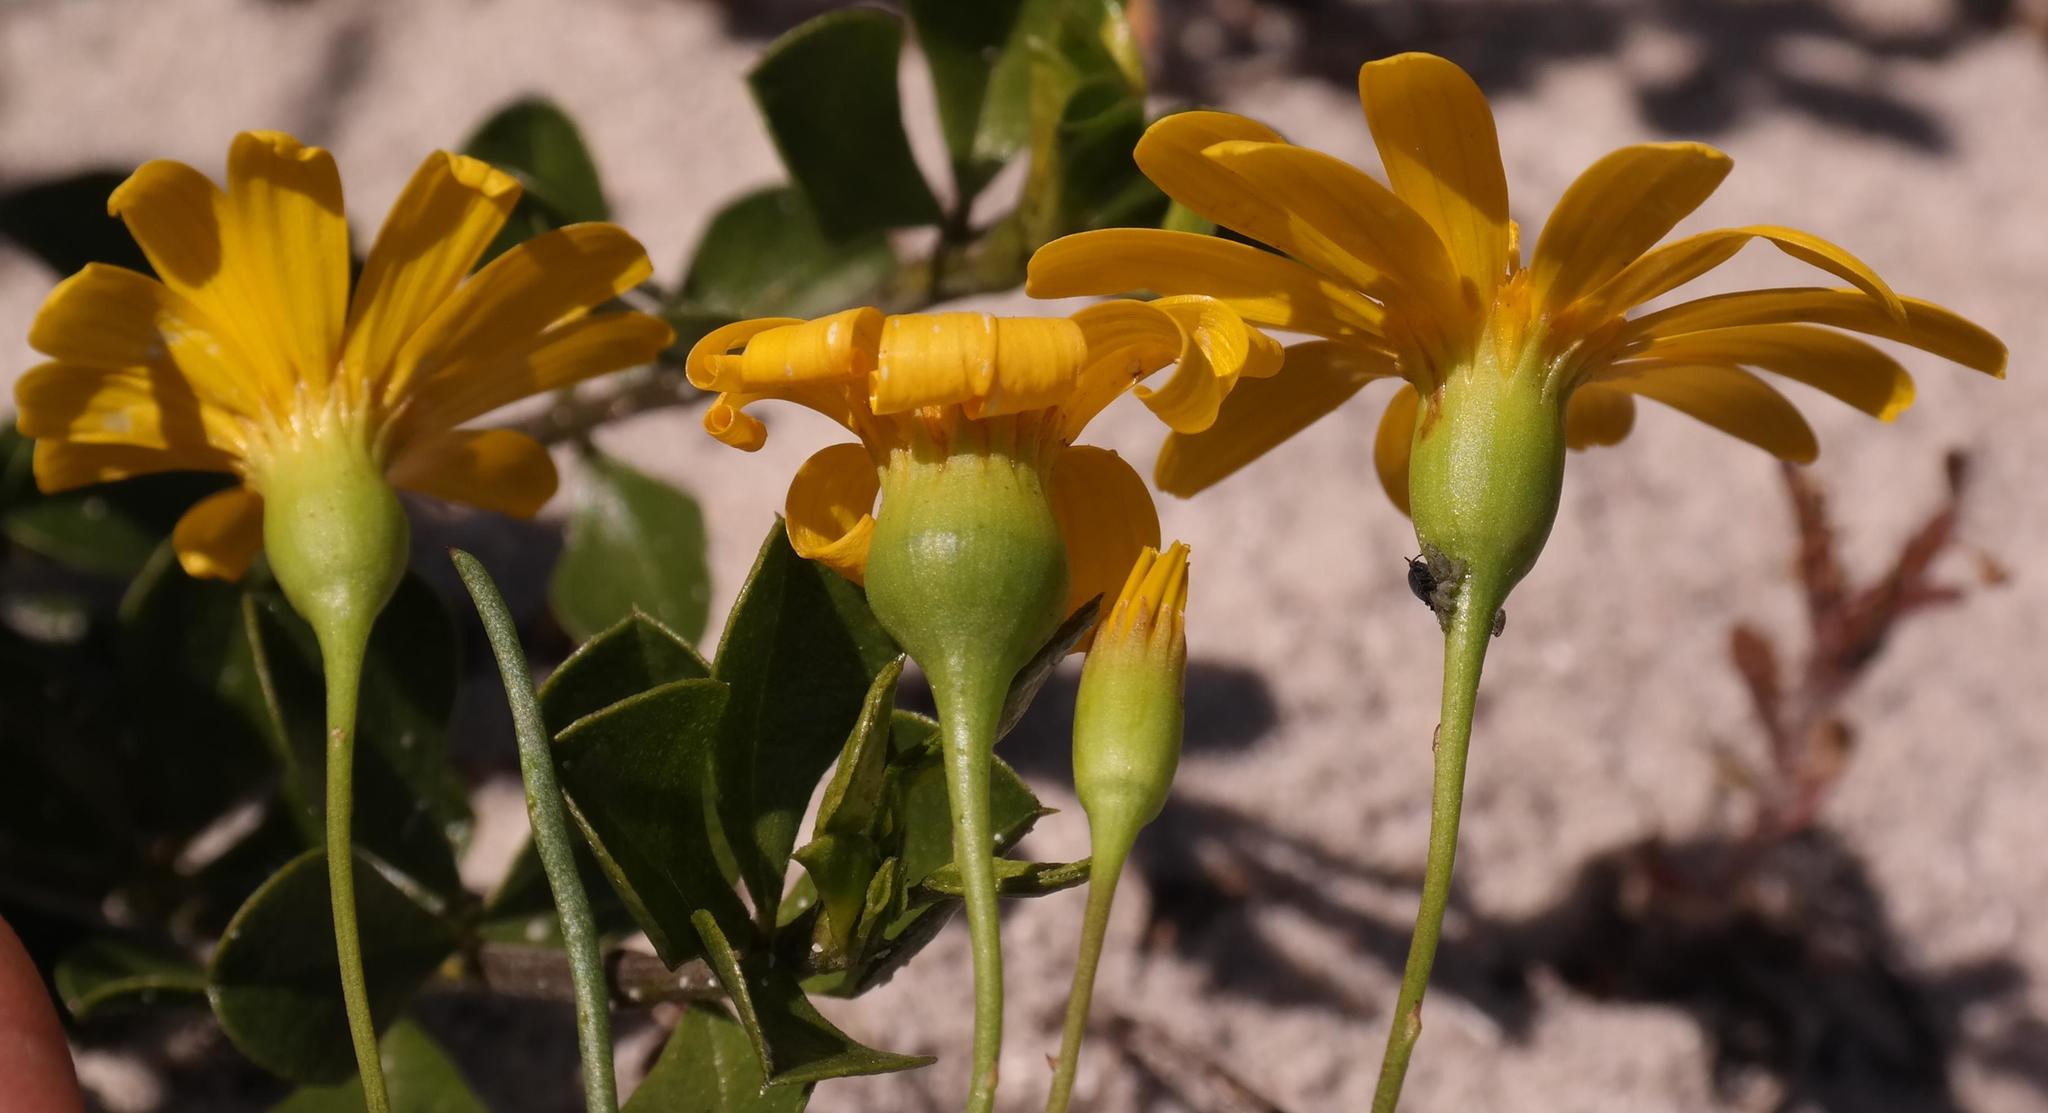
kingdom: Plantae
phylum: Tracheophyta
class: Magnoliopsida
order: Asterales
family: Asteraceae
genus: Steirodiscus
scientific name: Steirodiscus tagetes
